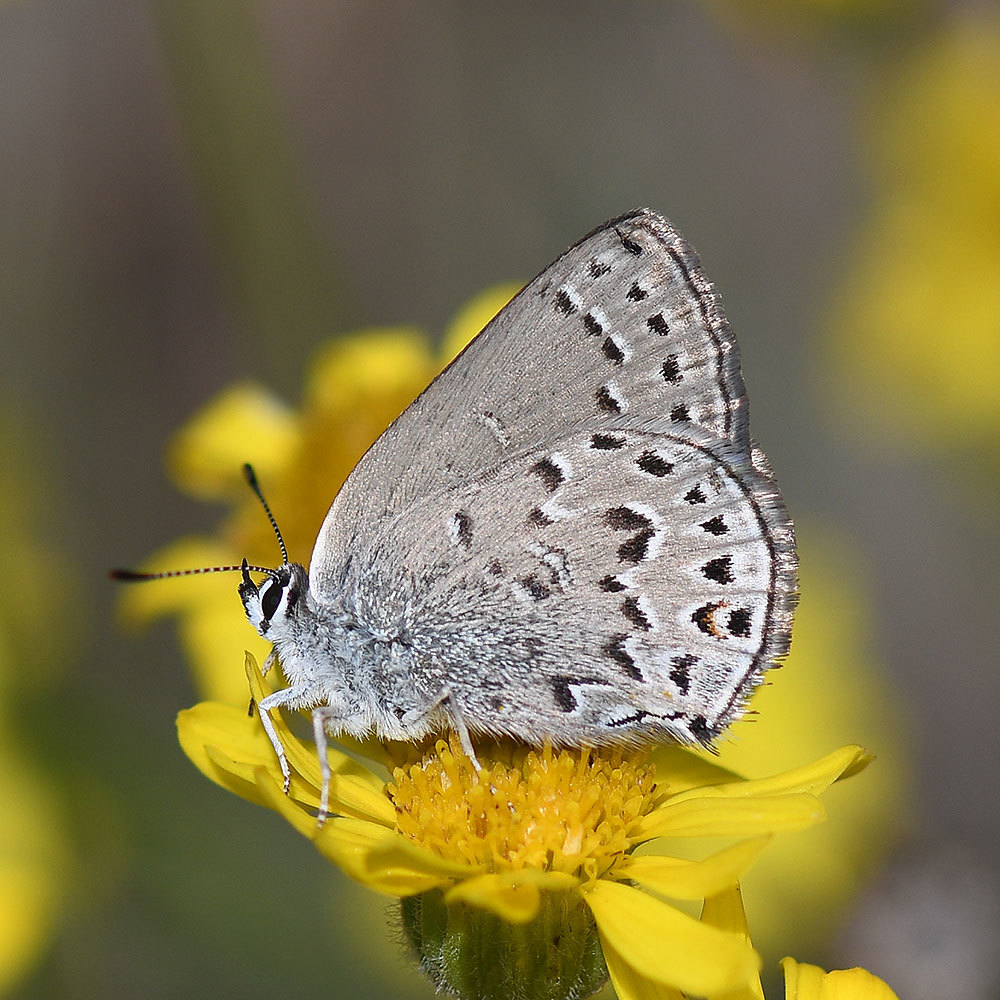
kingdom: Animalia
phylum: Arthropoda
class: Insecta
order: Lepidoptera
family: Lycaenidae
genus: Satyrium
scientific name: Satyrium behrii
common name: Behr's hairstreak
